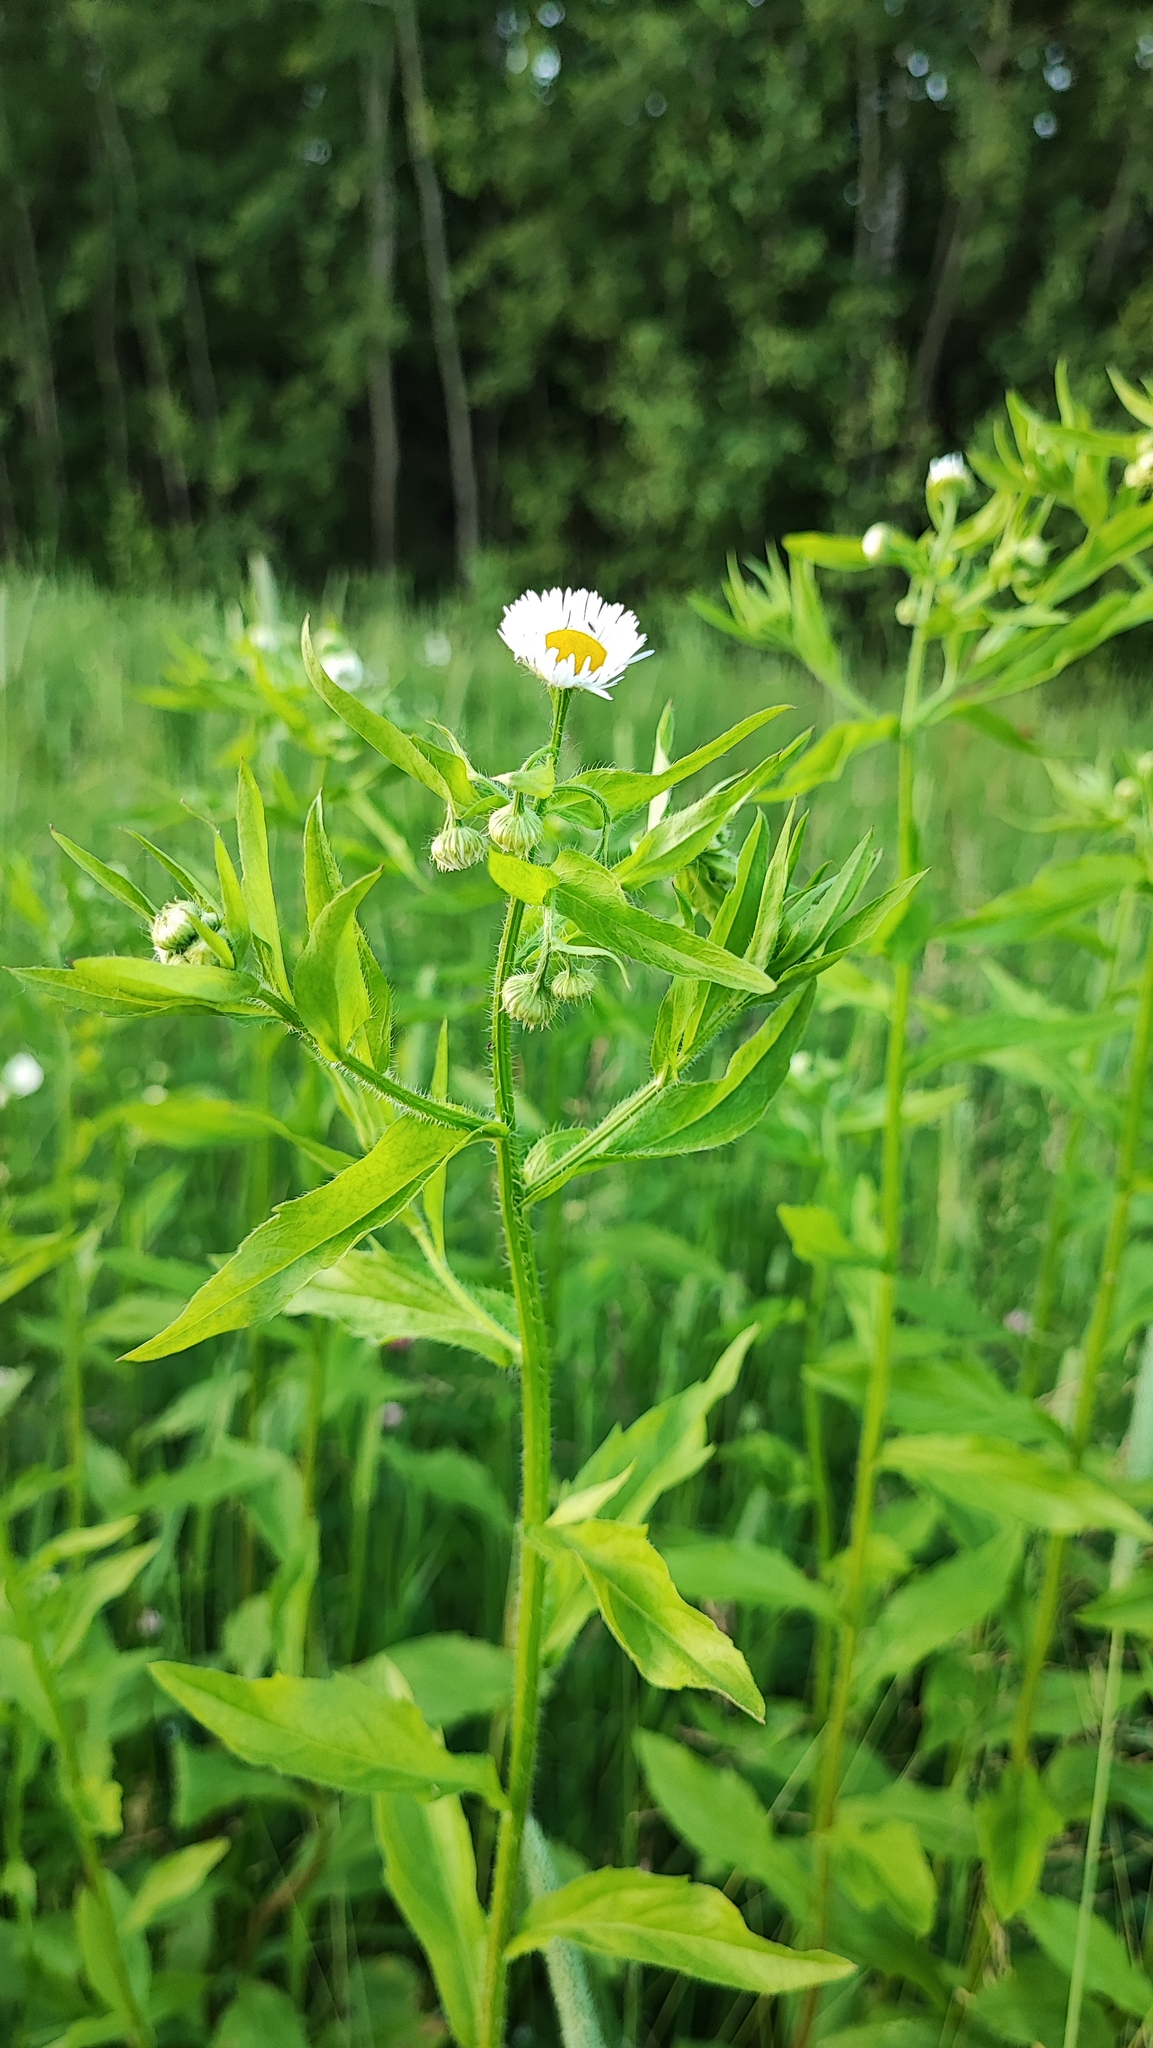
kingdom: Plantae
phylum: Tracheophyta
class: Magnoliopsida
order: Asterales
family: Asteraceae
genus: Erigeron
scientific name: Erigeron annuus
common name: Tall fleabane
